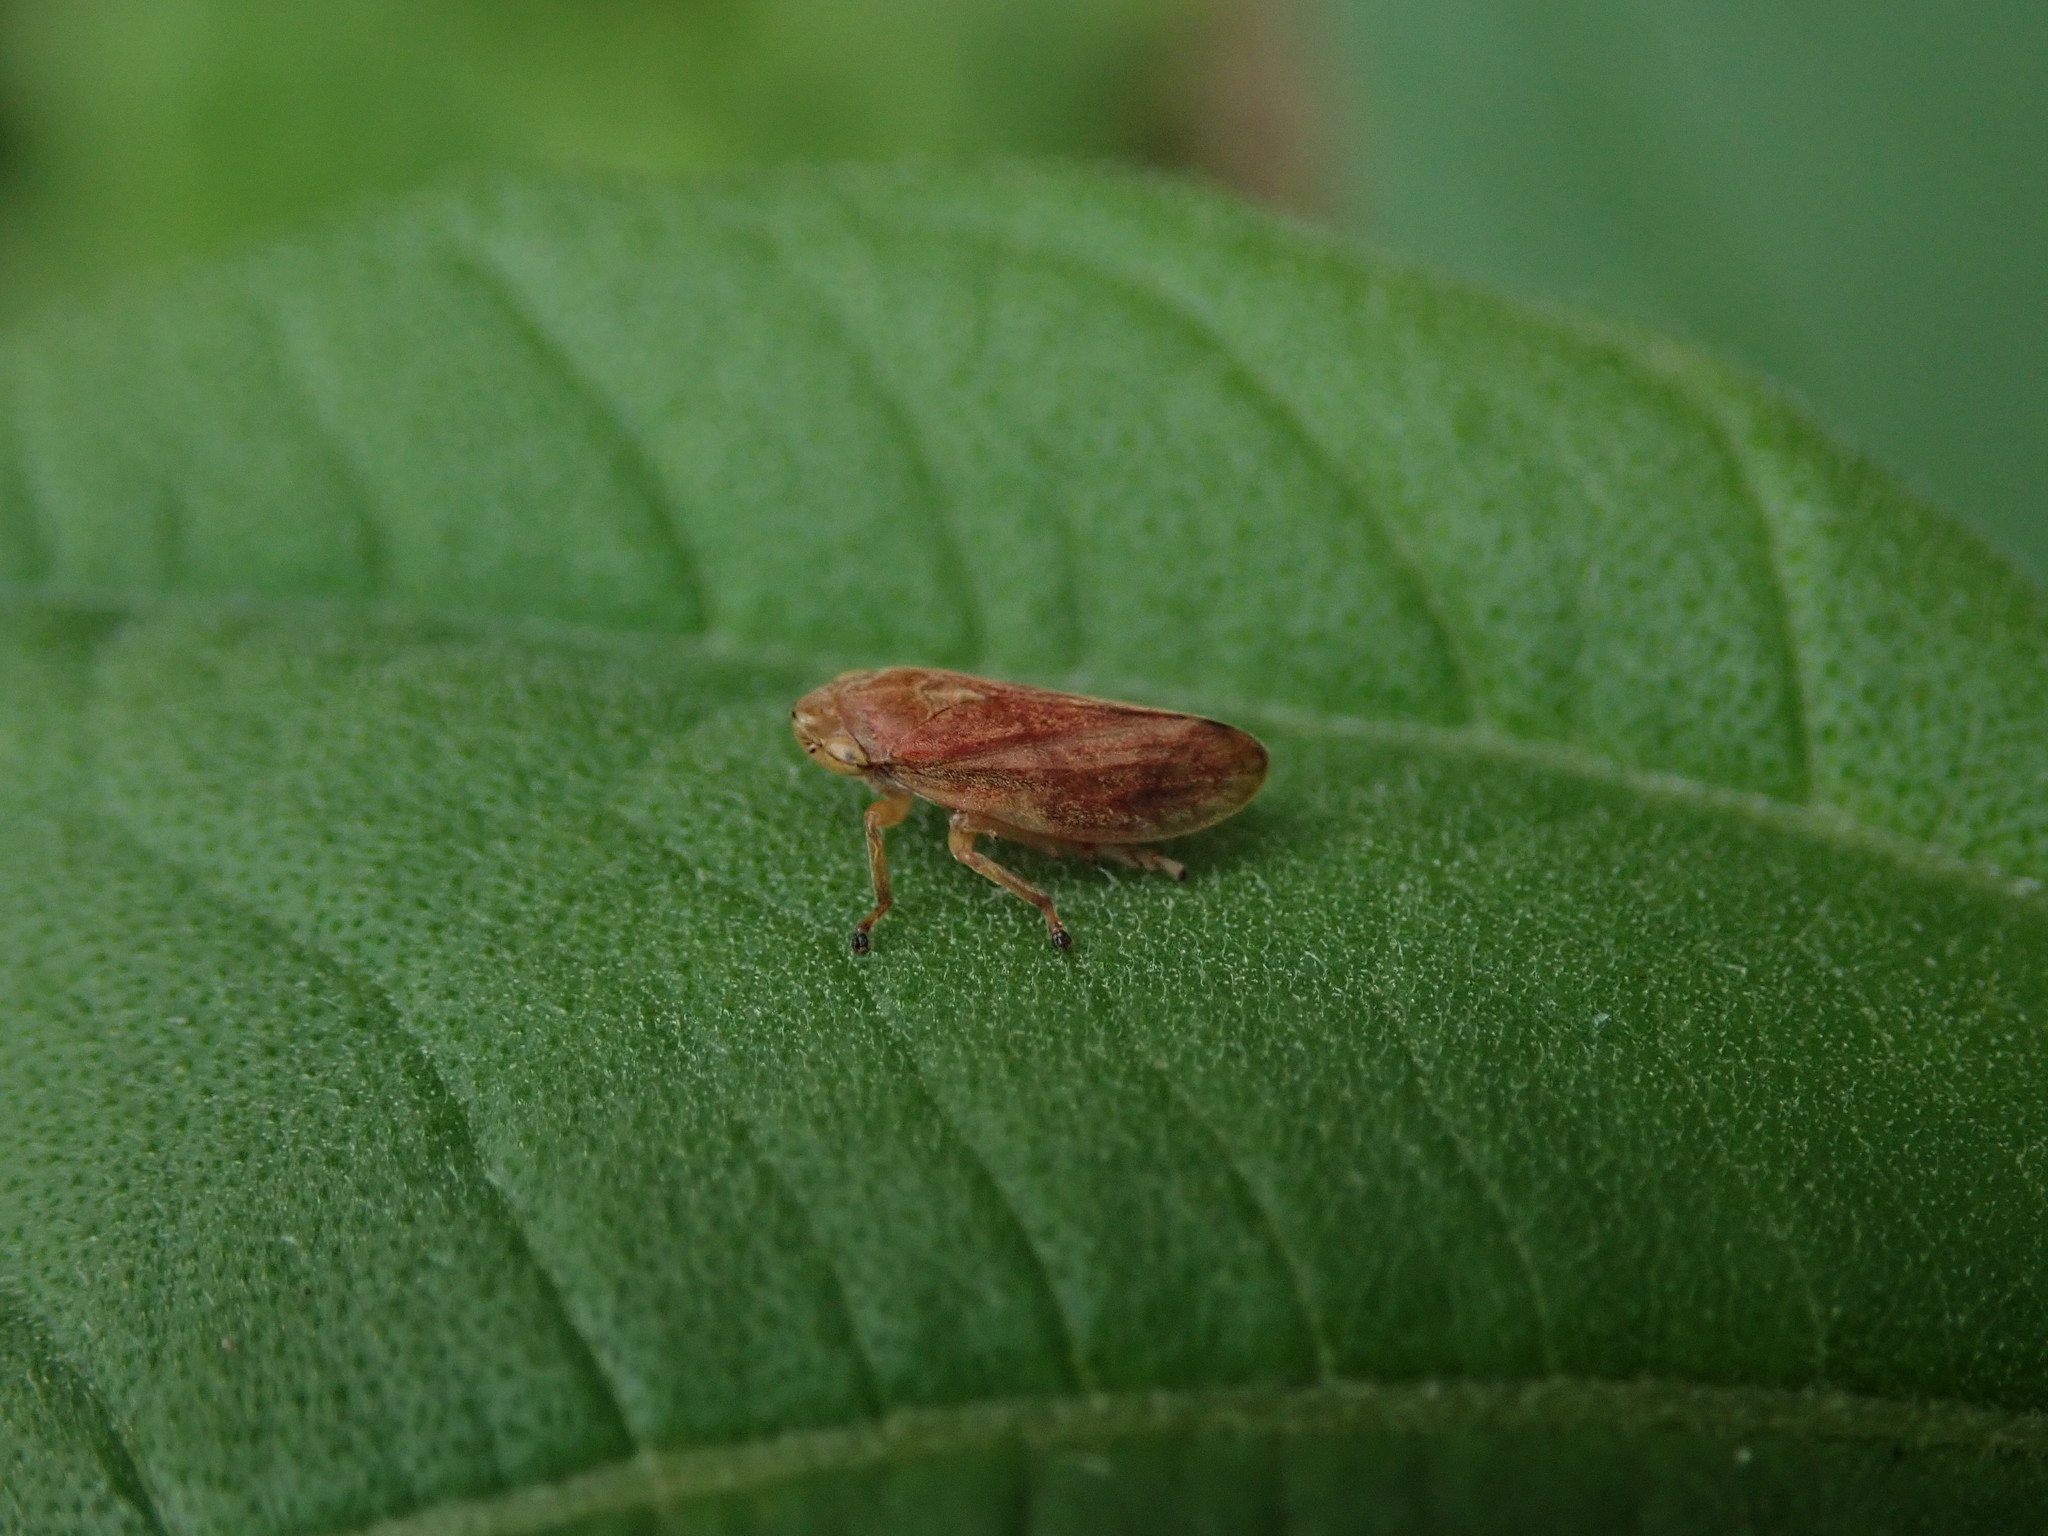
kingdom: Animalia
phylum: Arthropoda
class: Insecta
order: Hemiptera
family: Aphrophoridae
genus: Philaenus
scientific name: Philaenus spumarius
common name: Meadow spittlebug
